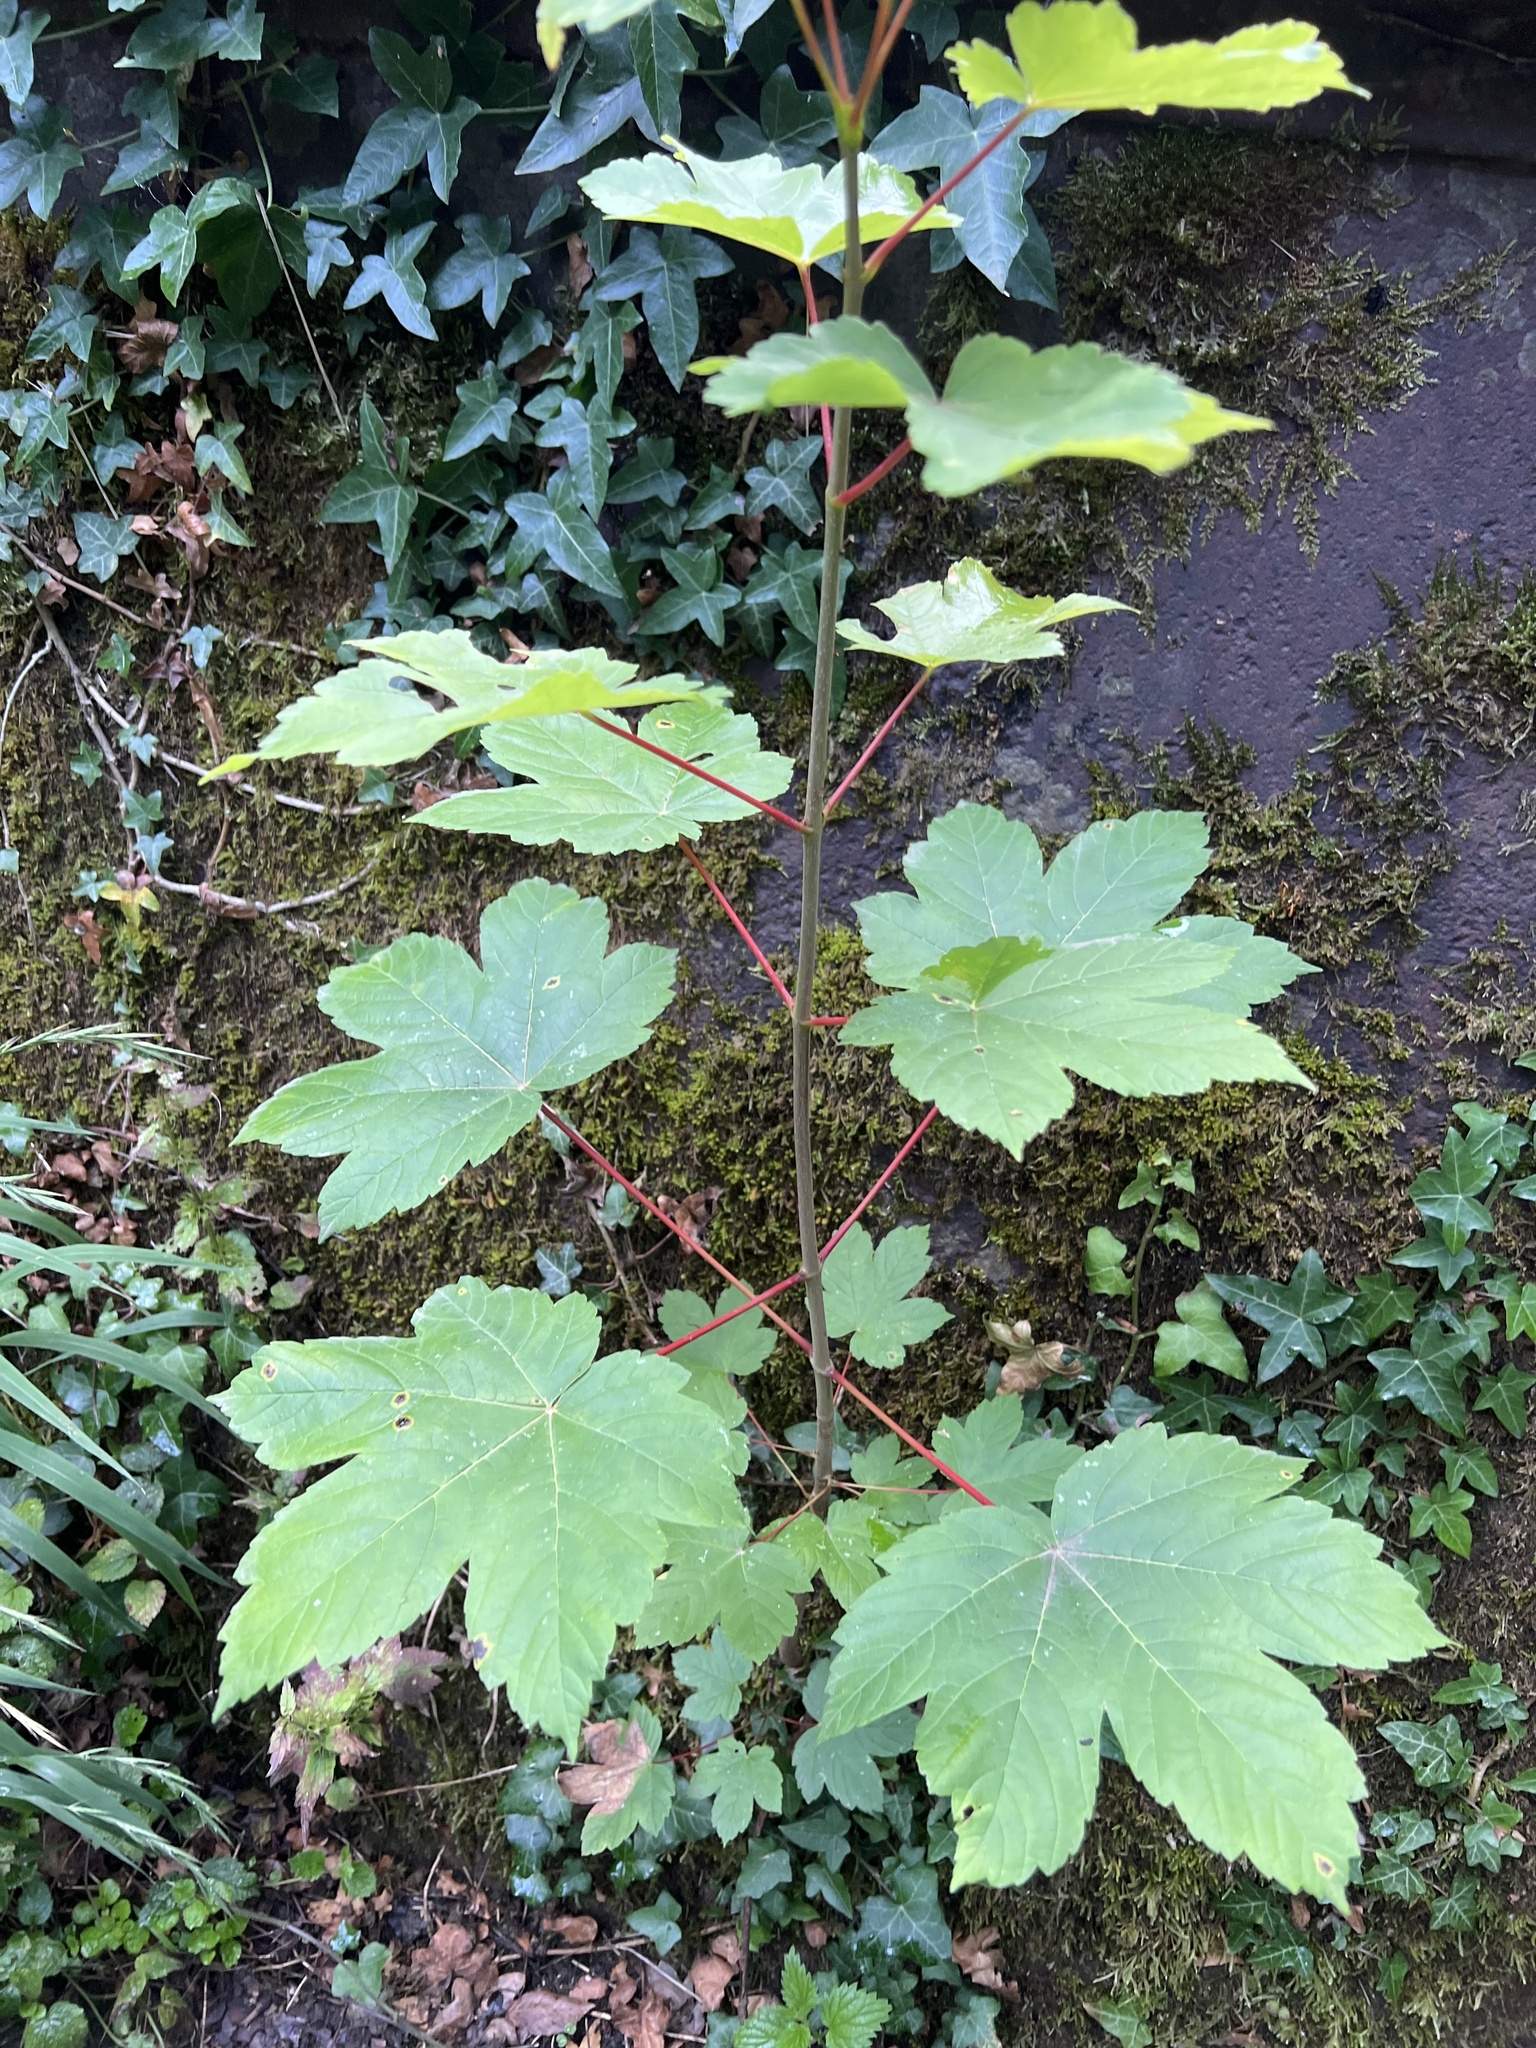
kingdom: Plantae
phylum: Tracheophyta
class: Magnoliopsida
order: Sapindales
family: Sapindaceae
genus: Acer
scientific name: Acer pseudoplatanus
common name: Sycamore
